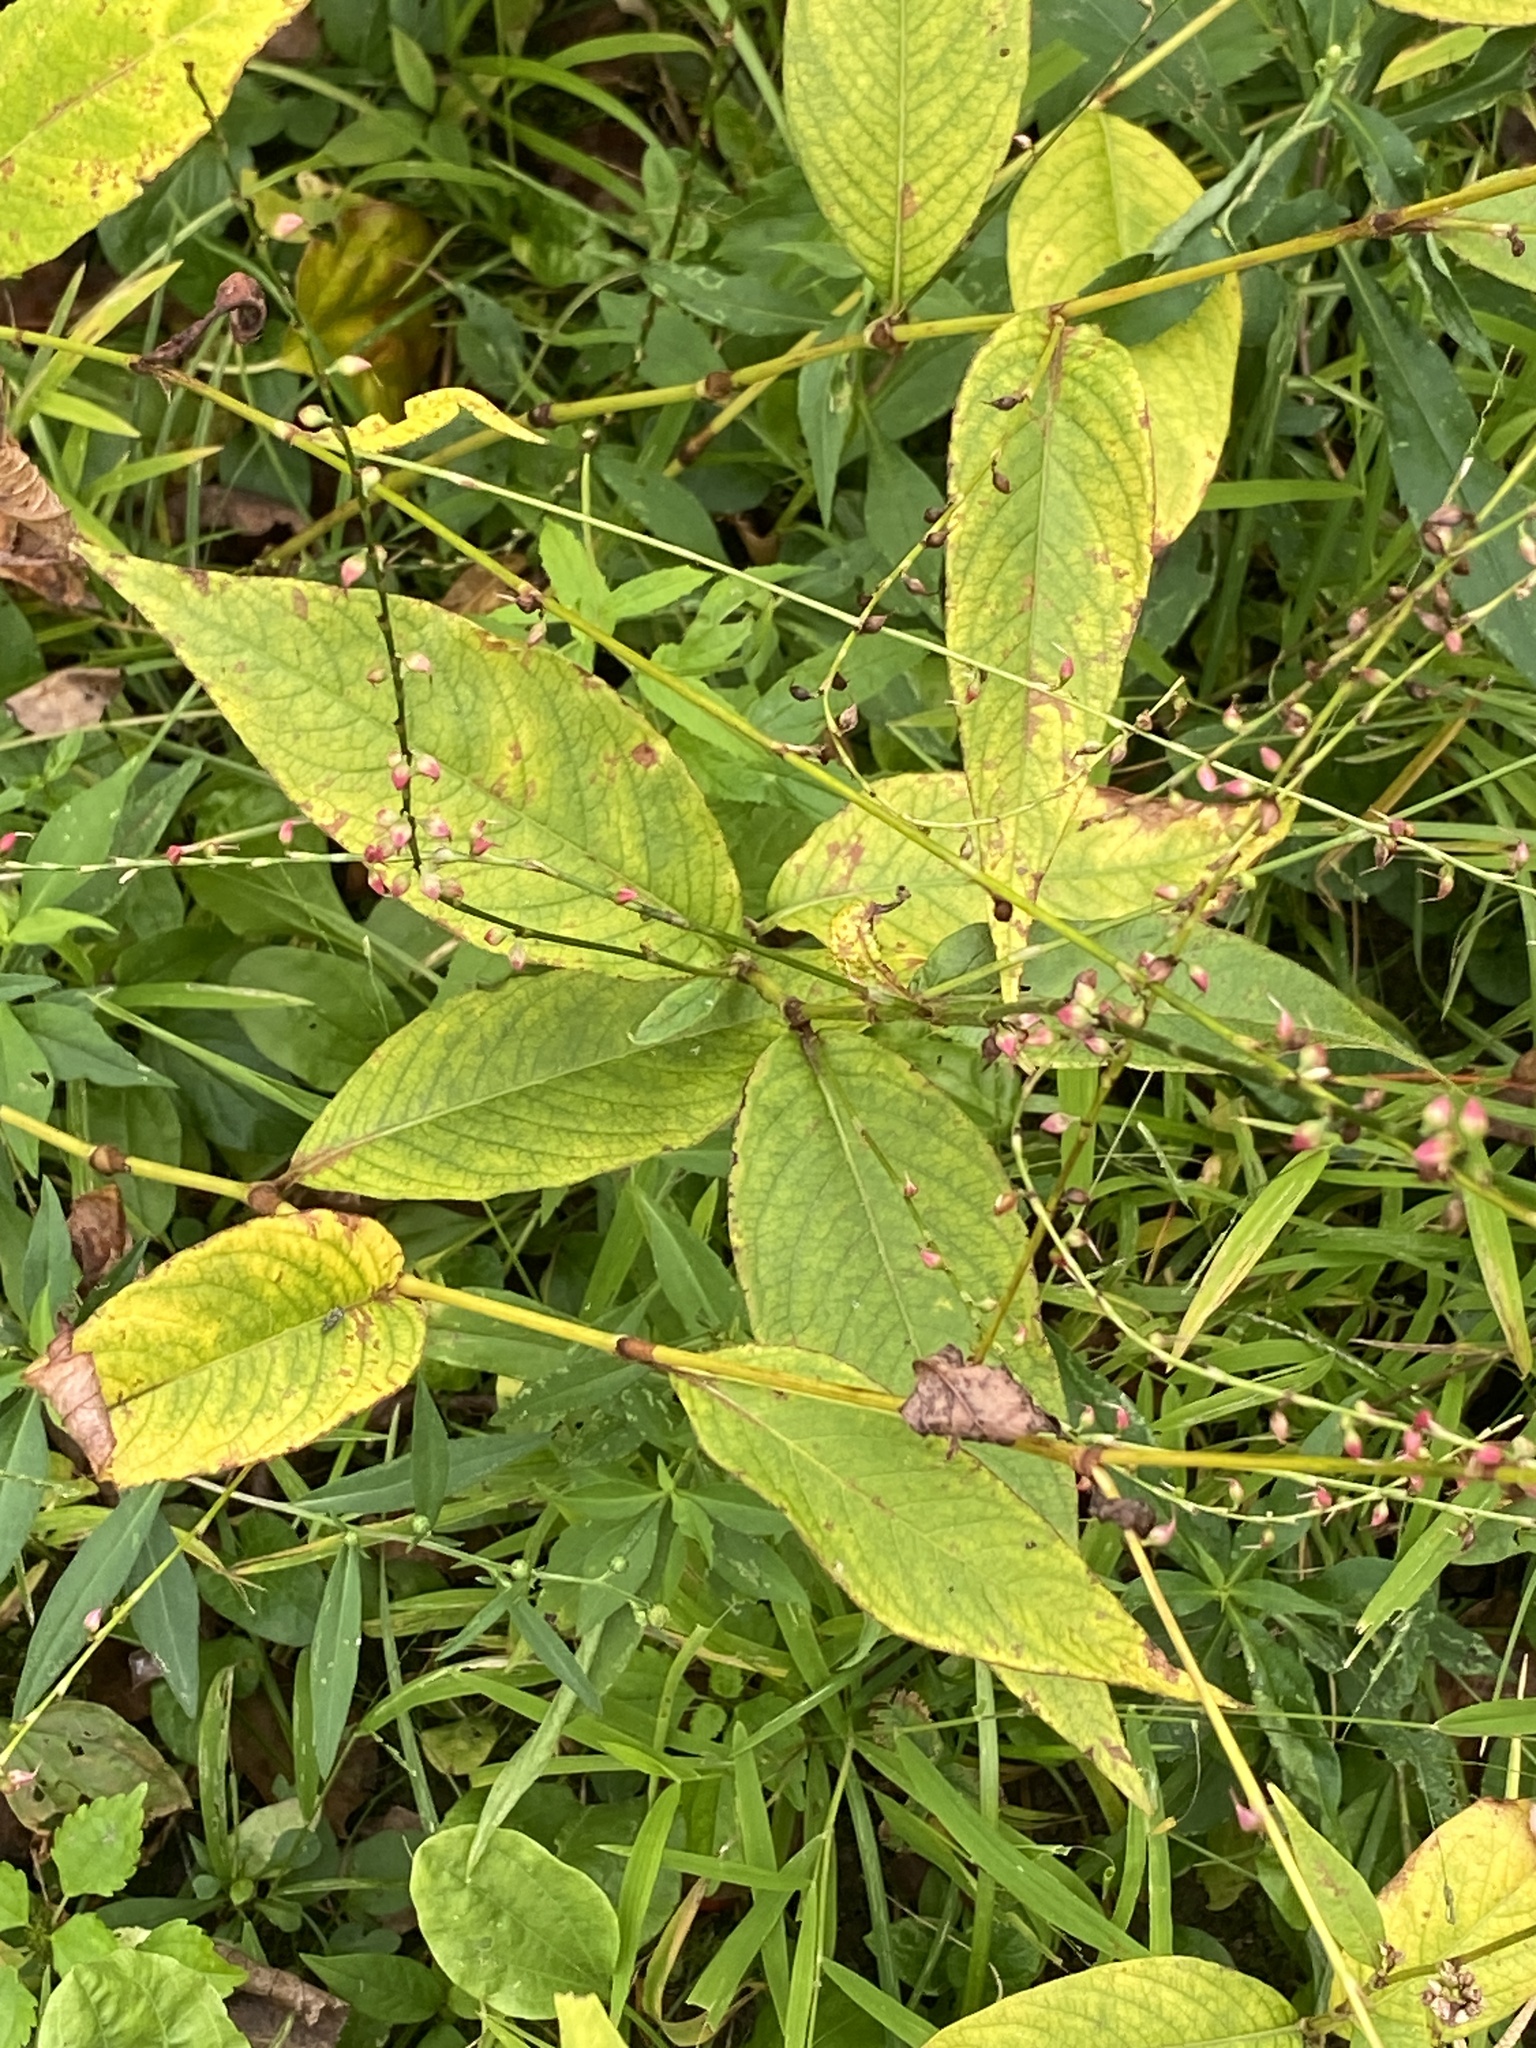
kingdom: Plantae
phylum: Tracheophyta
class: Magnoliopsida
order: Caryophyllales
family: Polygonaceae
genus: Persicaria
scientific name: Persicaria virginiana
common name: Jumpseed
